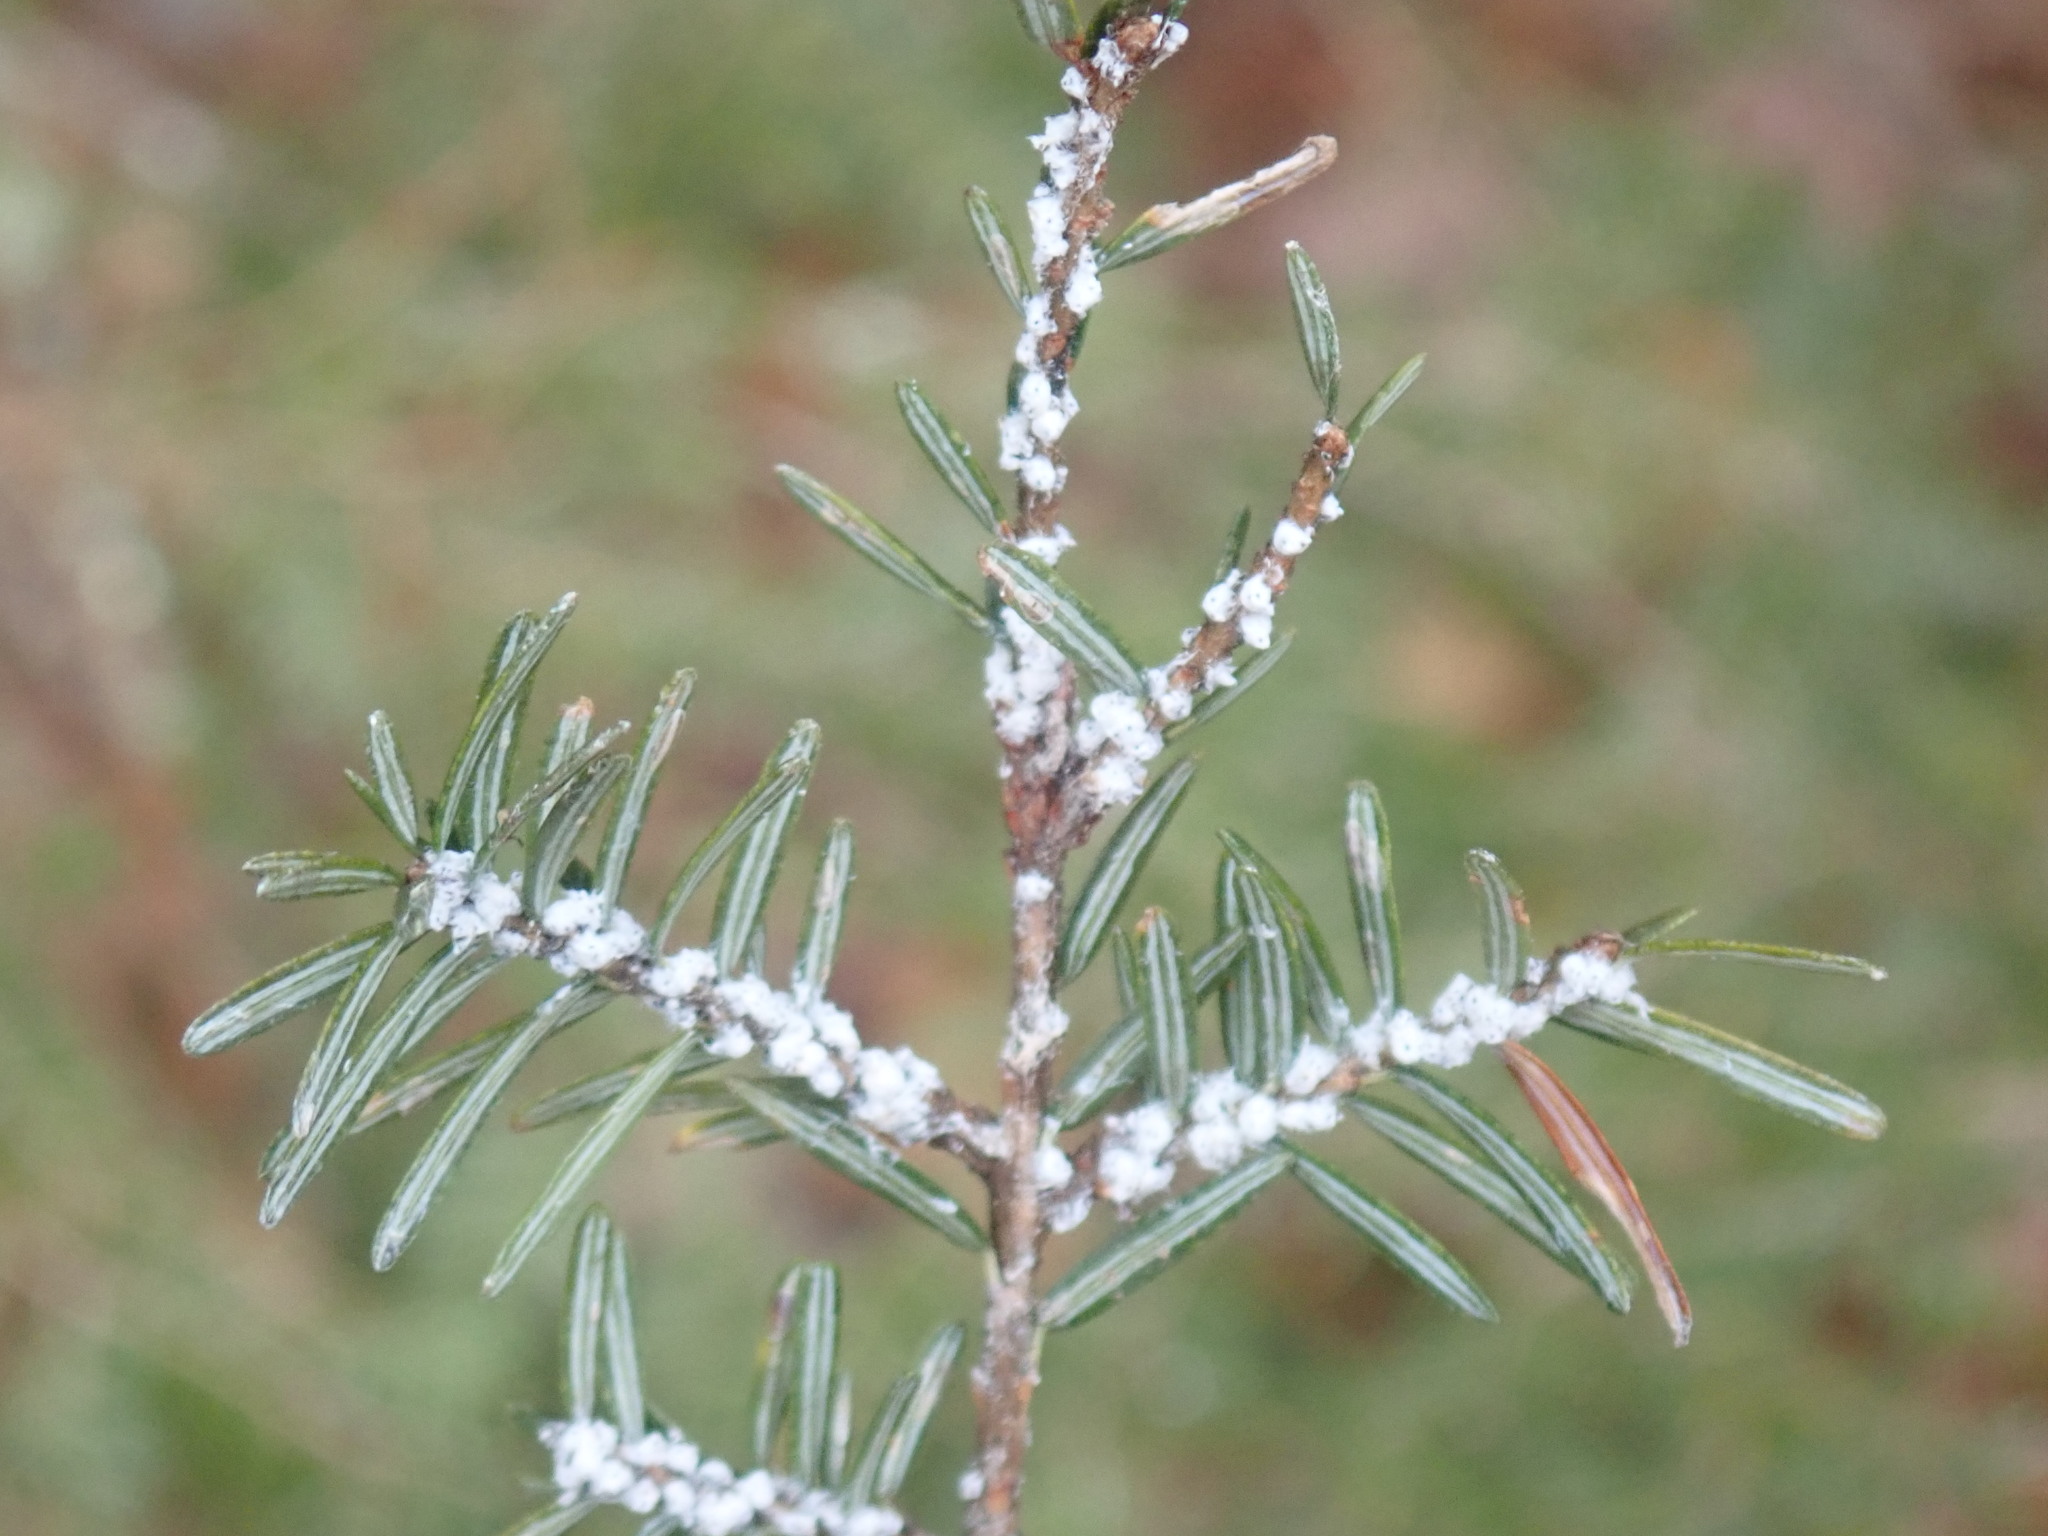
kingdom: Animalia
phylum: Arthropoda
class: Insecta
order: Hemiptera
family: Adelgidae
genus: Adelges
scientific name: Adelges tsugae
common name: Hemlock woolly adelgid
